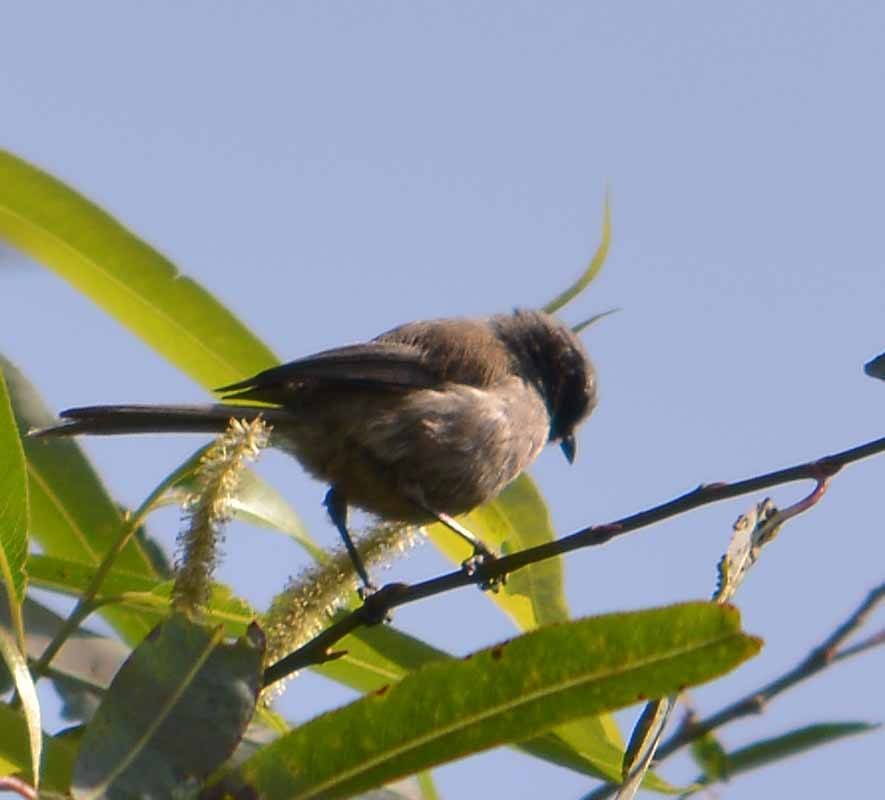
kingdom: Animalia
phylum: Chordata
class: Aves
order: Passeriformes
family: Aegithalidae
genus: Psaltriparus
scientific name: Psaltriparus minimus
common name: American bushtit
